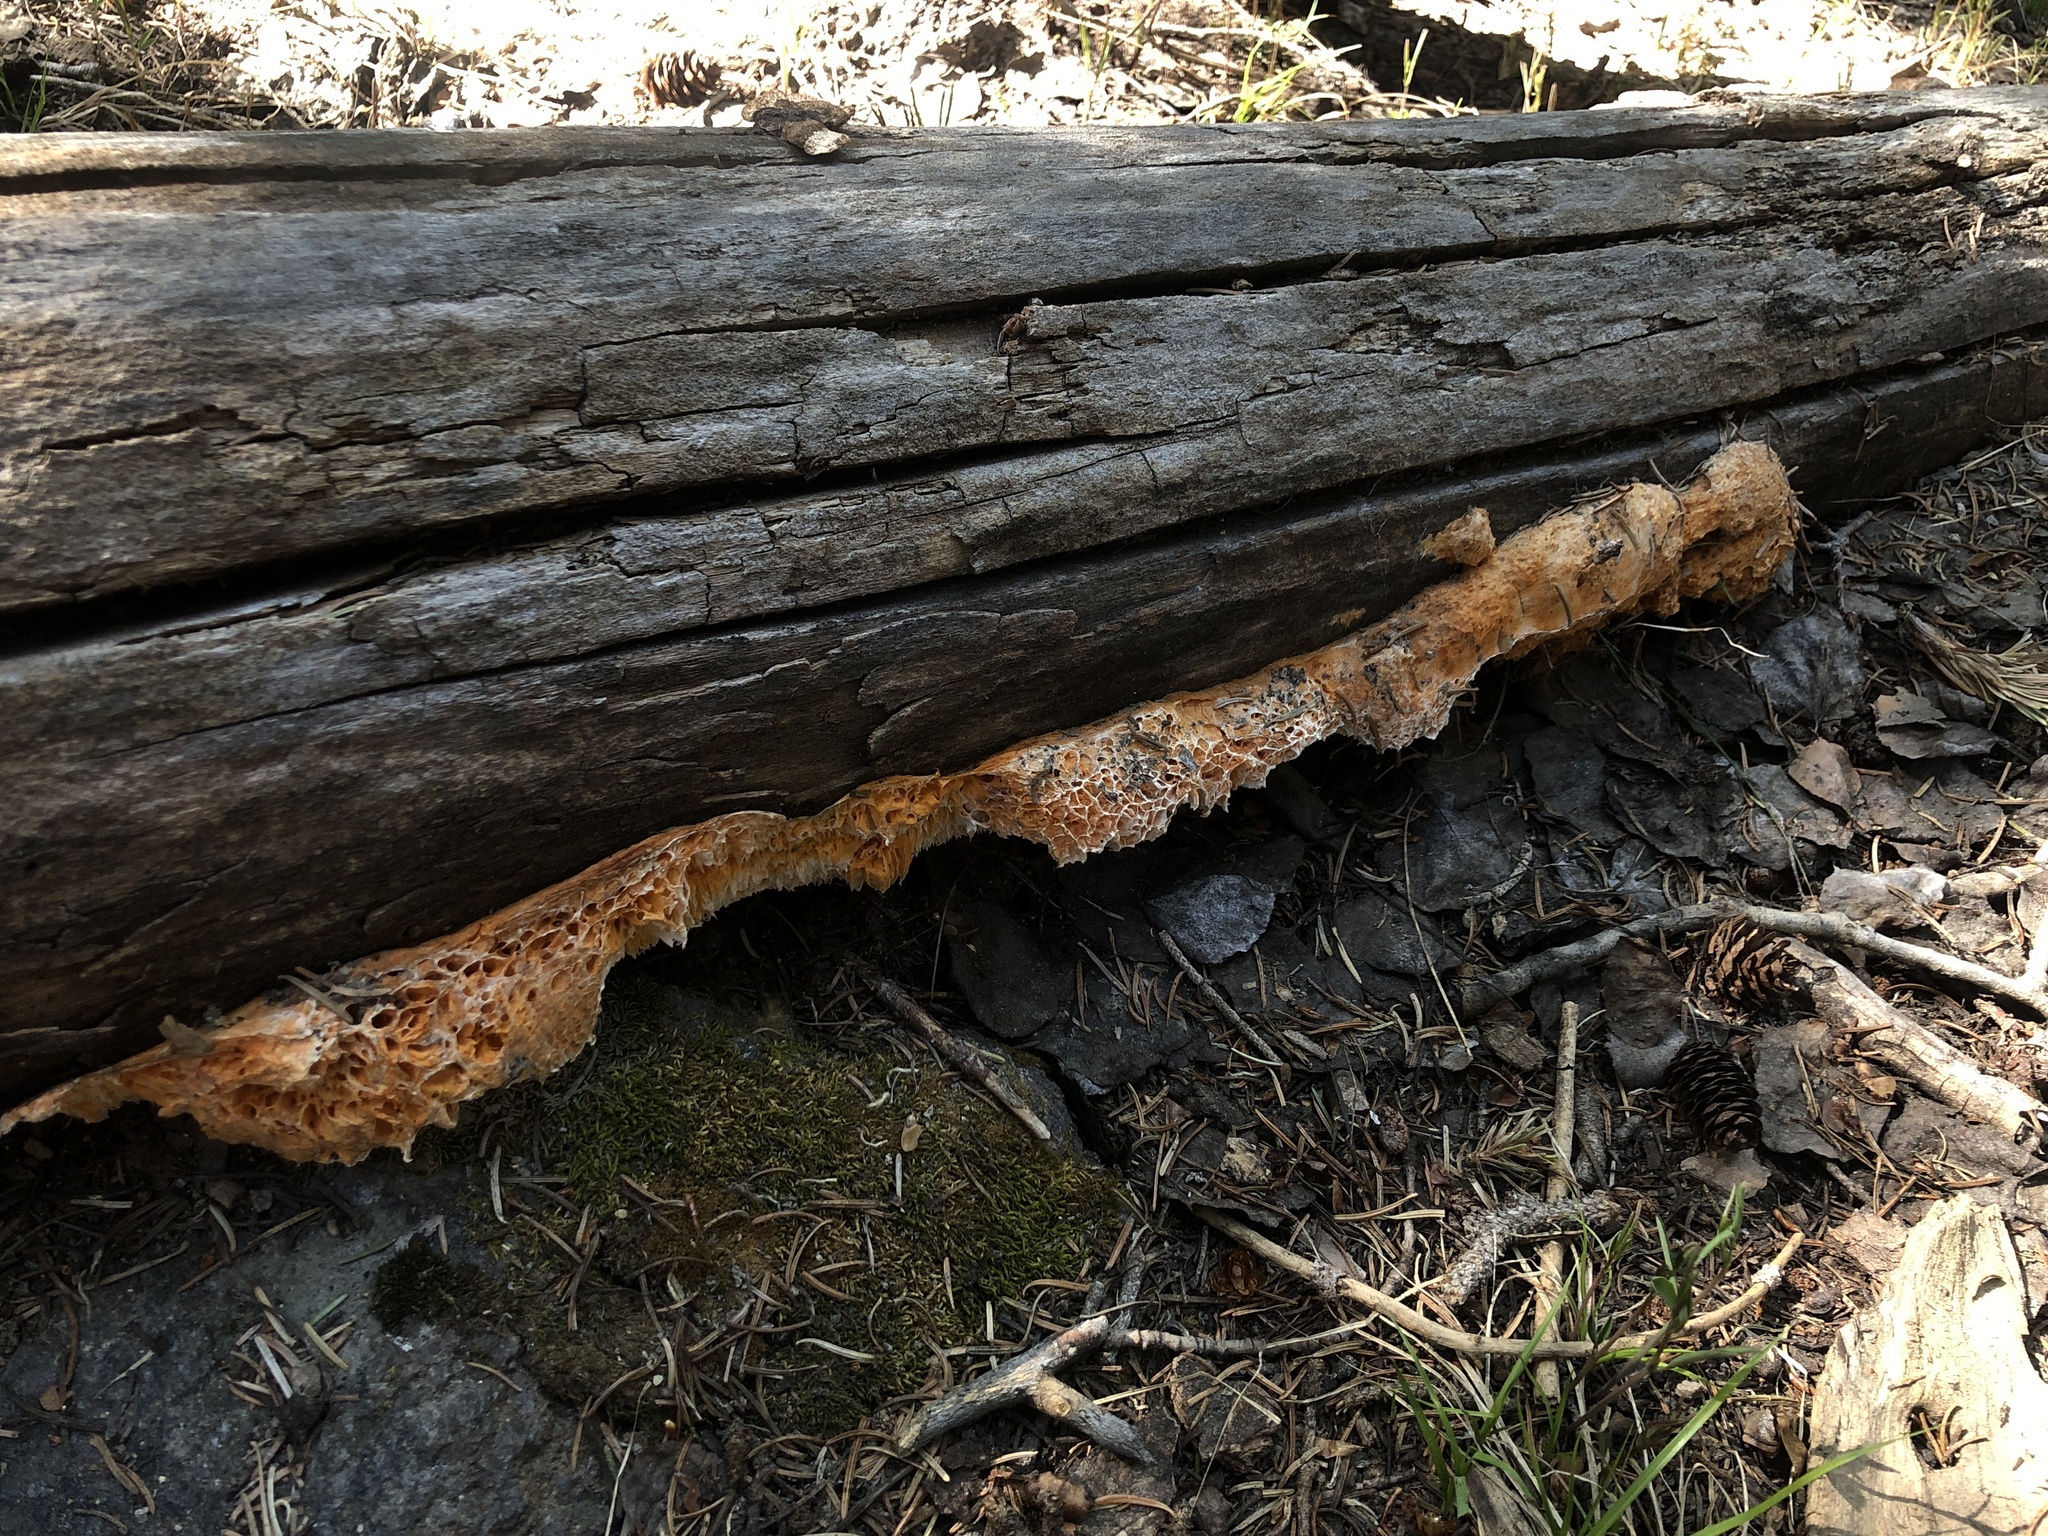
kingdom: Fungi
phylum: Basidiomycota
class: Agaricomycetes
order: Polyporales
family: Pycnoporellaceae
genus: Pycnoporellus
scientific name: Pycnoporellus alboluteus
